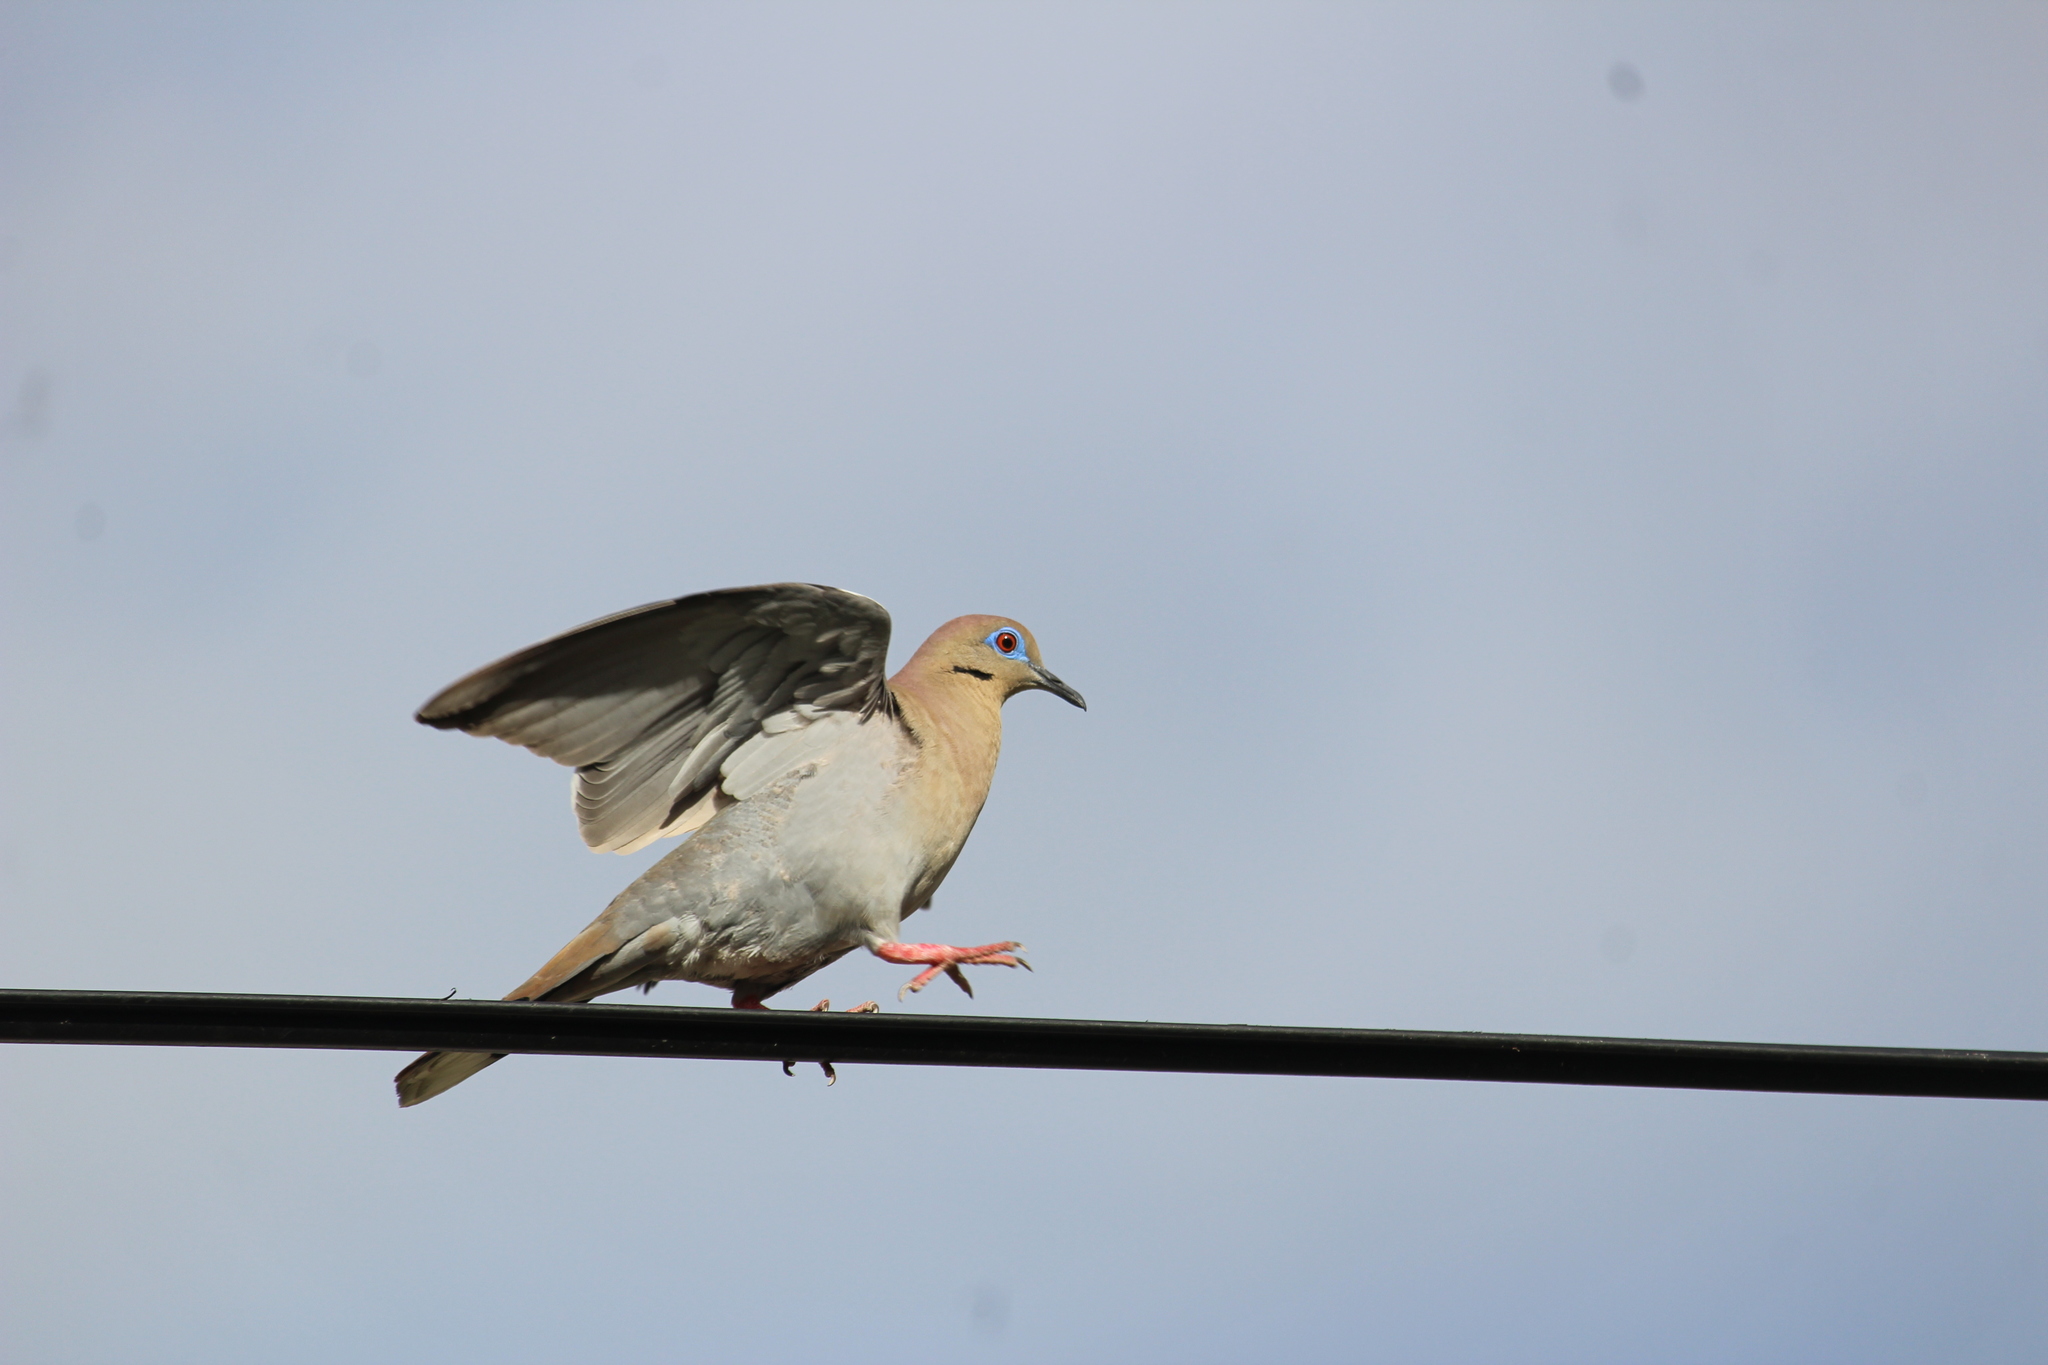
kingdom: Animalia
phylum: Chordata
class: Aves
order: Columbiformes
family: Columbidae
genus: Zenaida
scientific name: Zenaida asiatica
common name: White-winged dove
